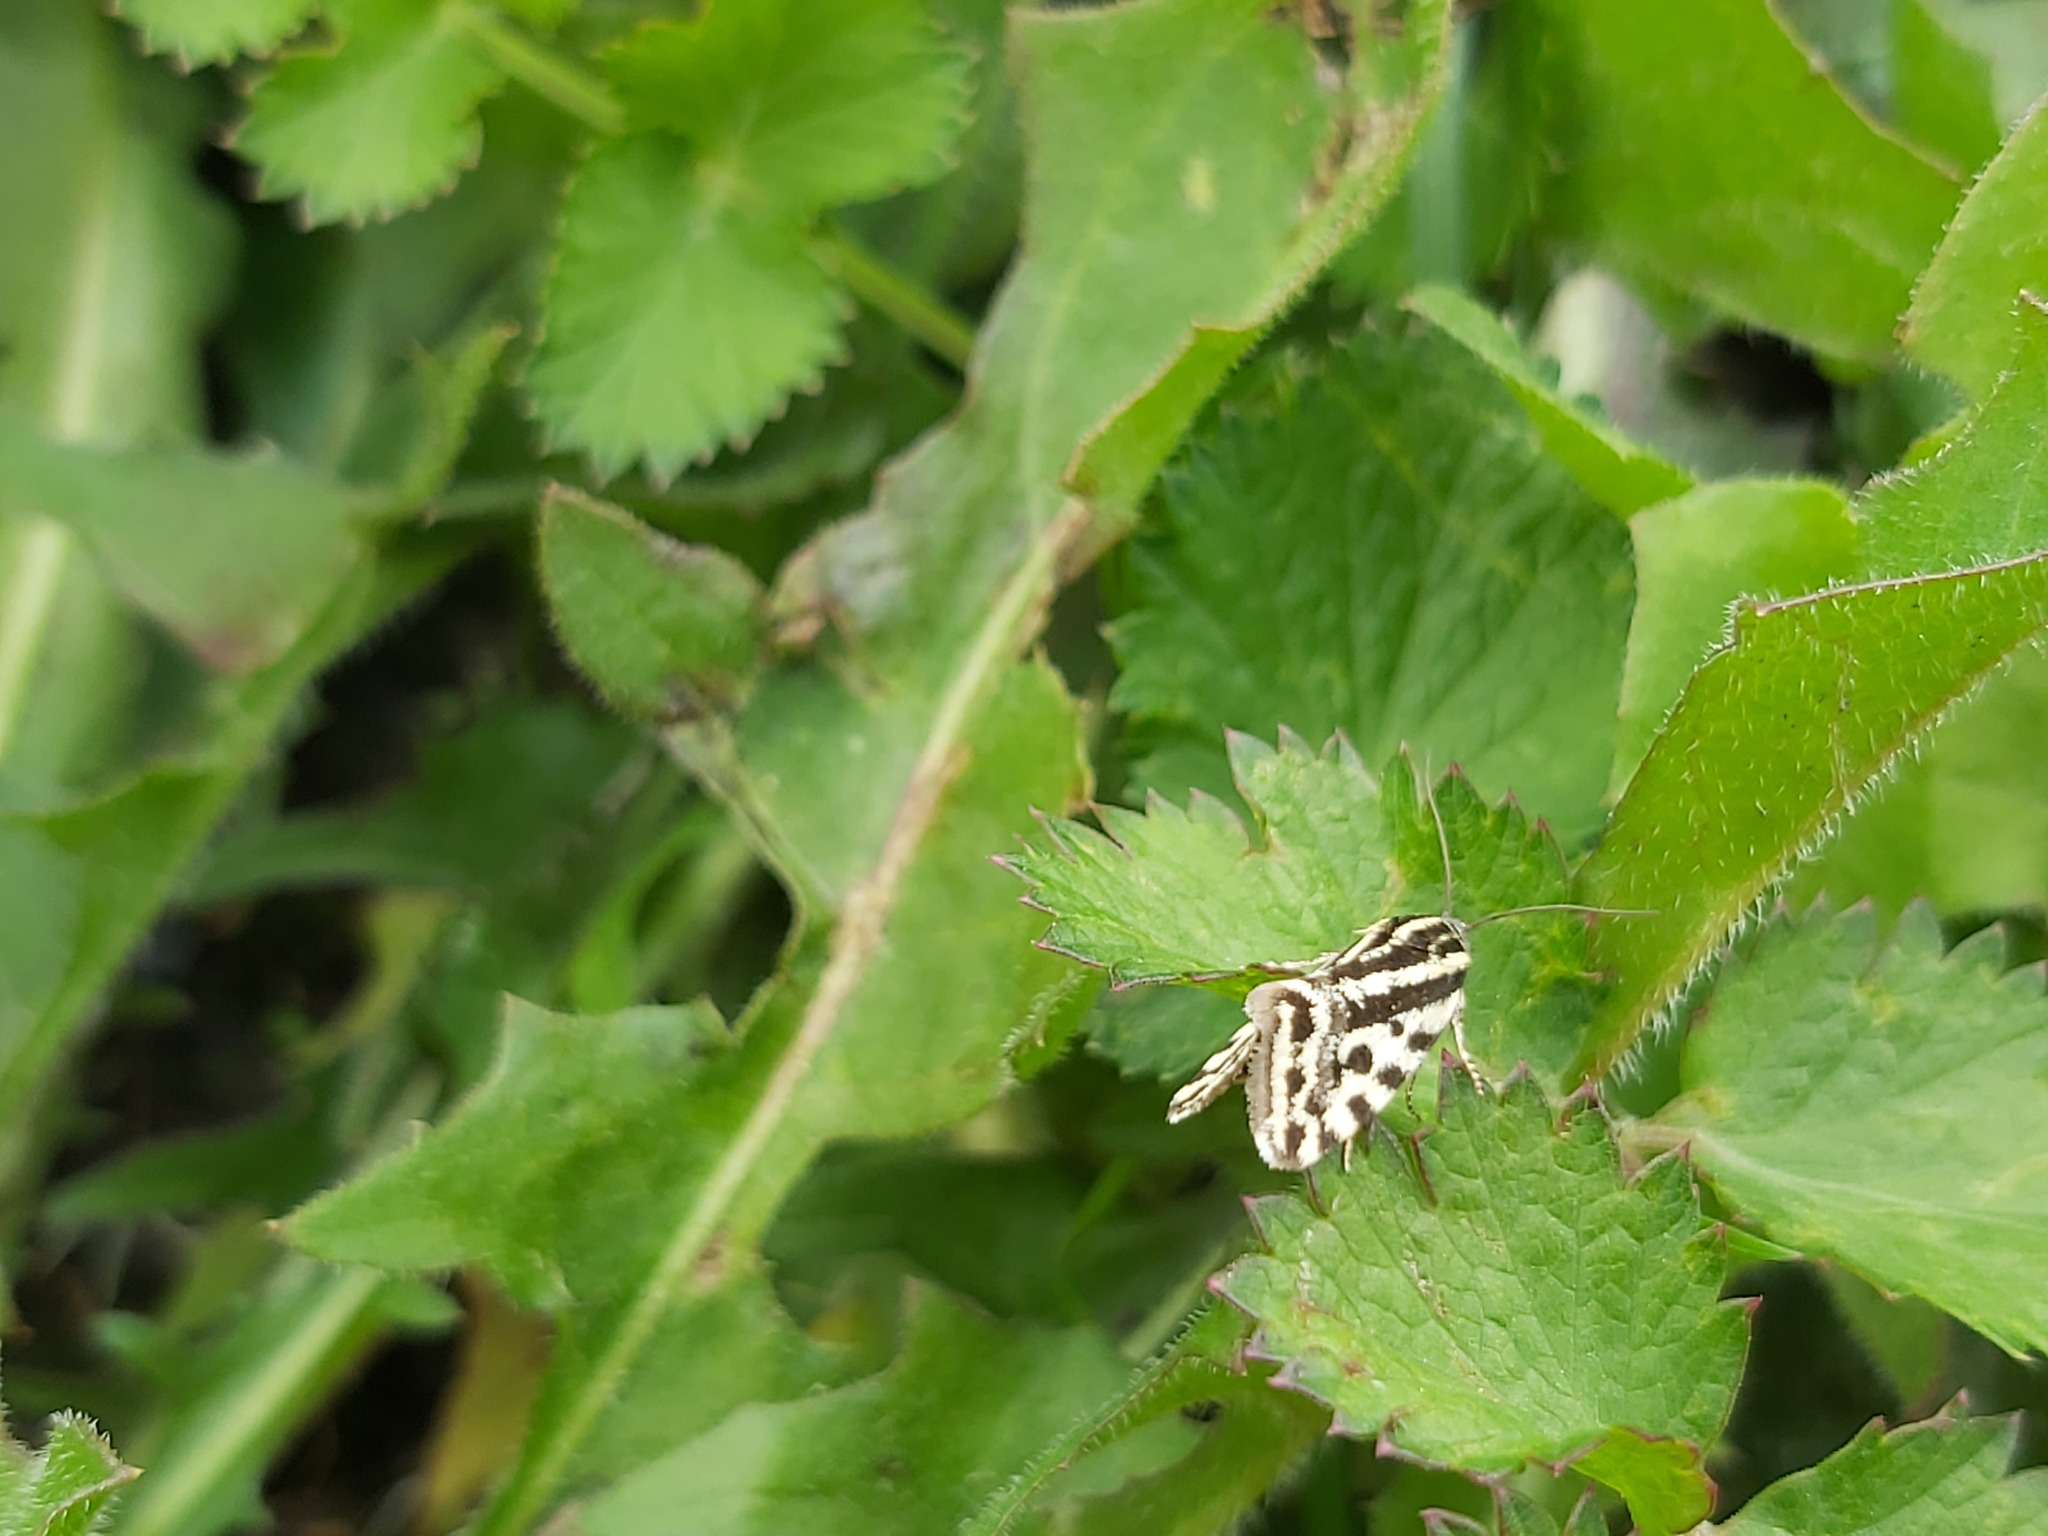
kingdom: Animalia
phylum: Arthropoda
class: Insecta
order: Lepidoptera
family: Noctuidae
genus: Acontia
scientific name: Acontia trabealis
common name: Spotted sulphur
